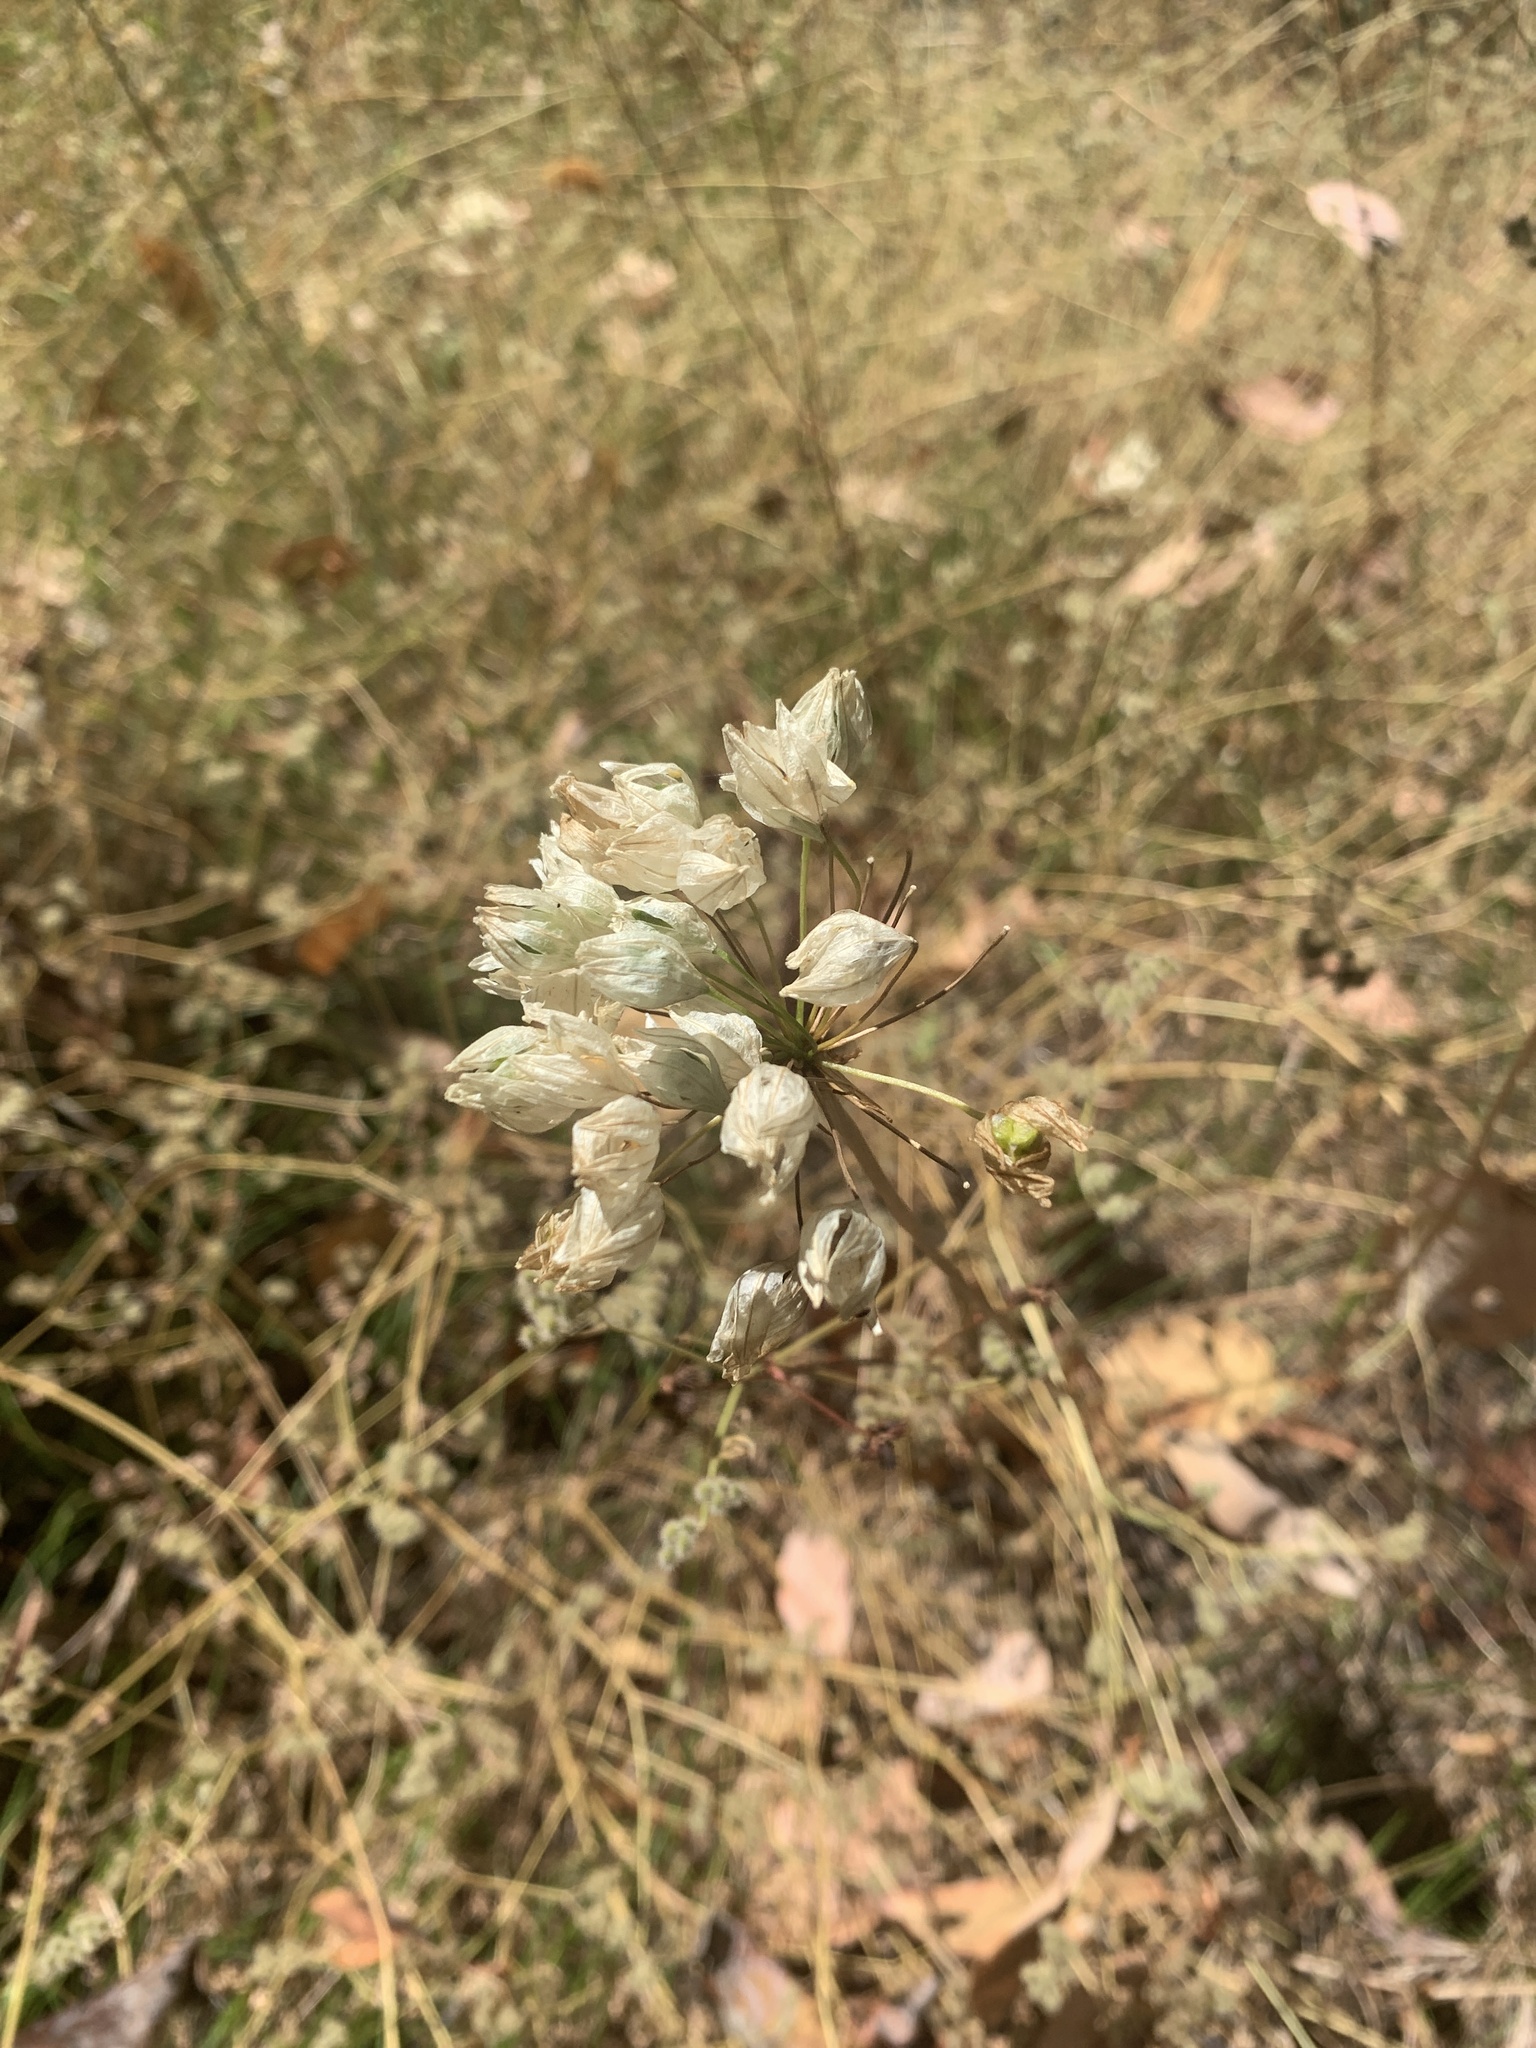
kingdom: Plantae
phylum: Tracheophyta
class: Liliopsida
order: Asparagales
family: Asparagaceae
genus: Triteleia
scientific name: Triteleia hyacinthina
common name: White brodiaea
